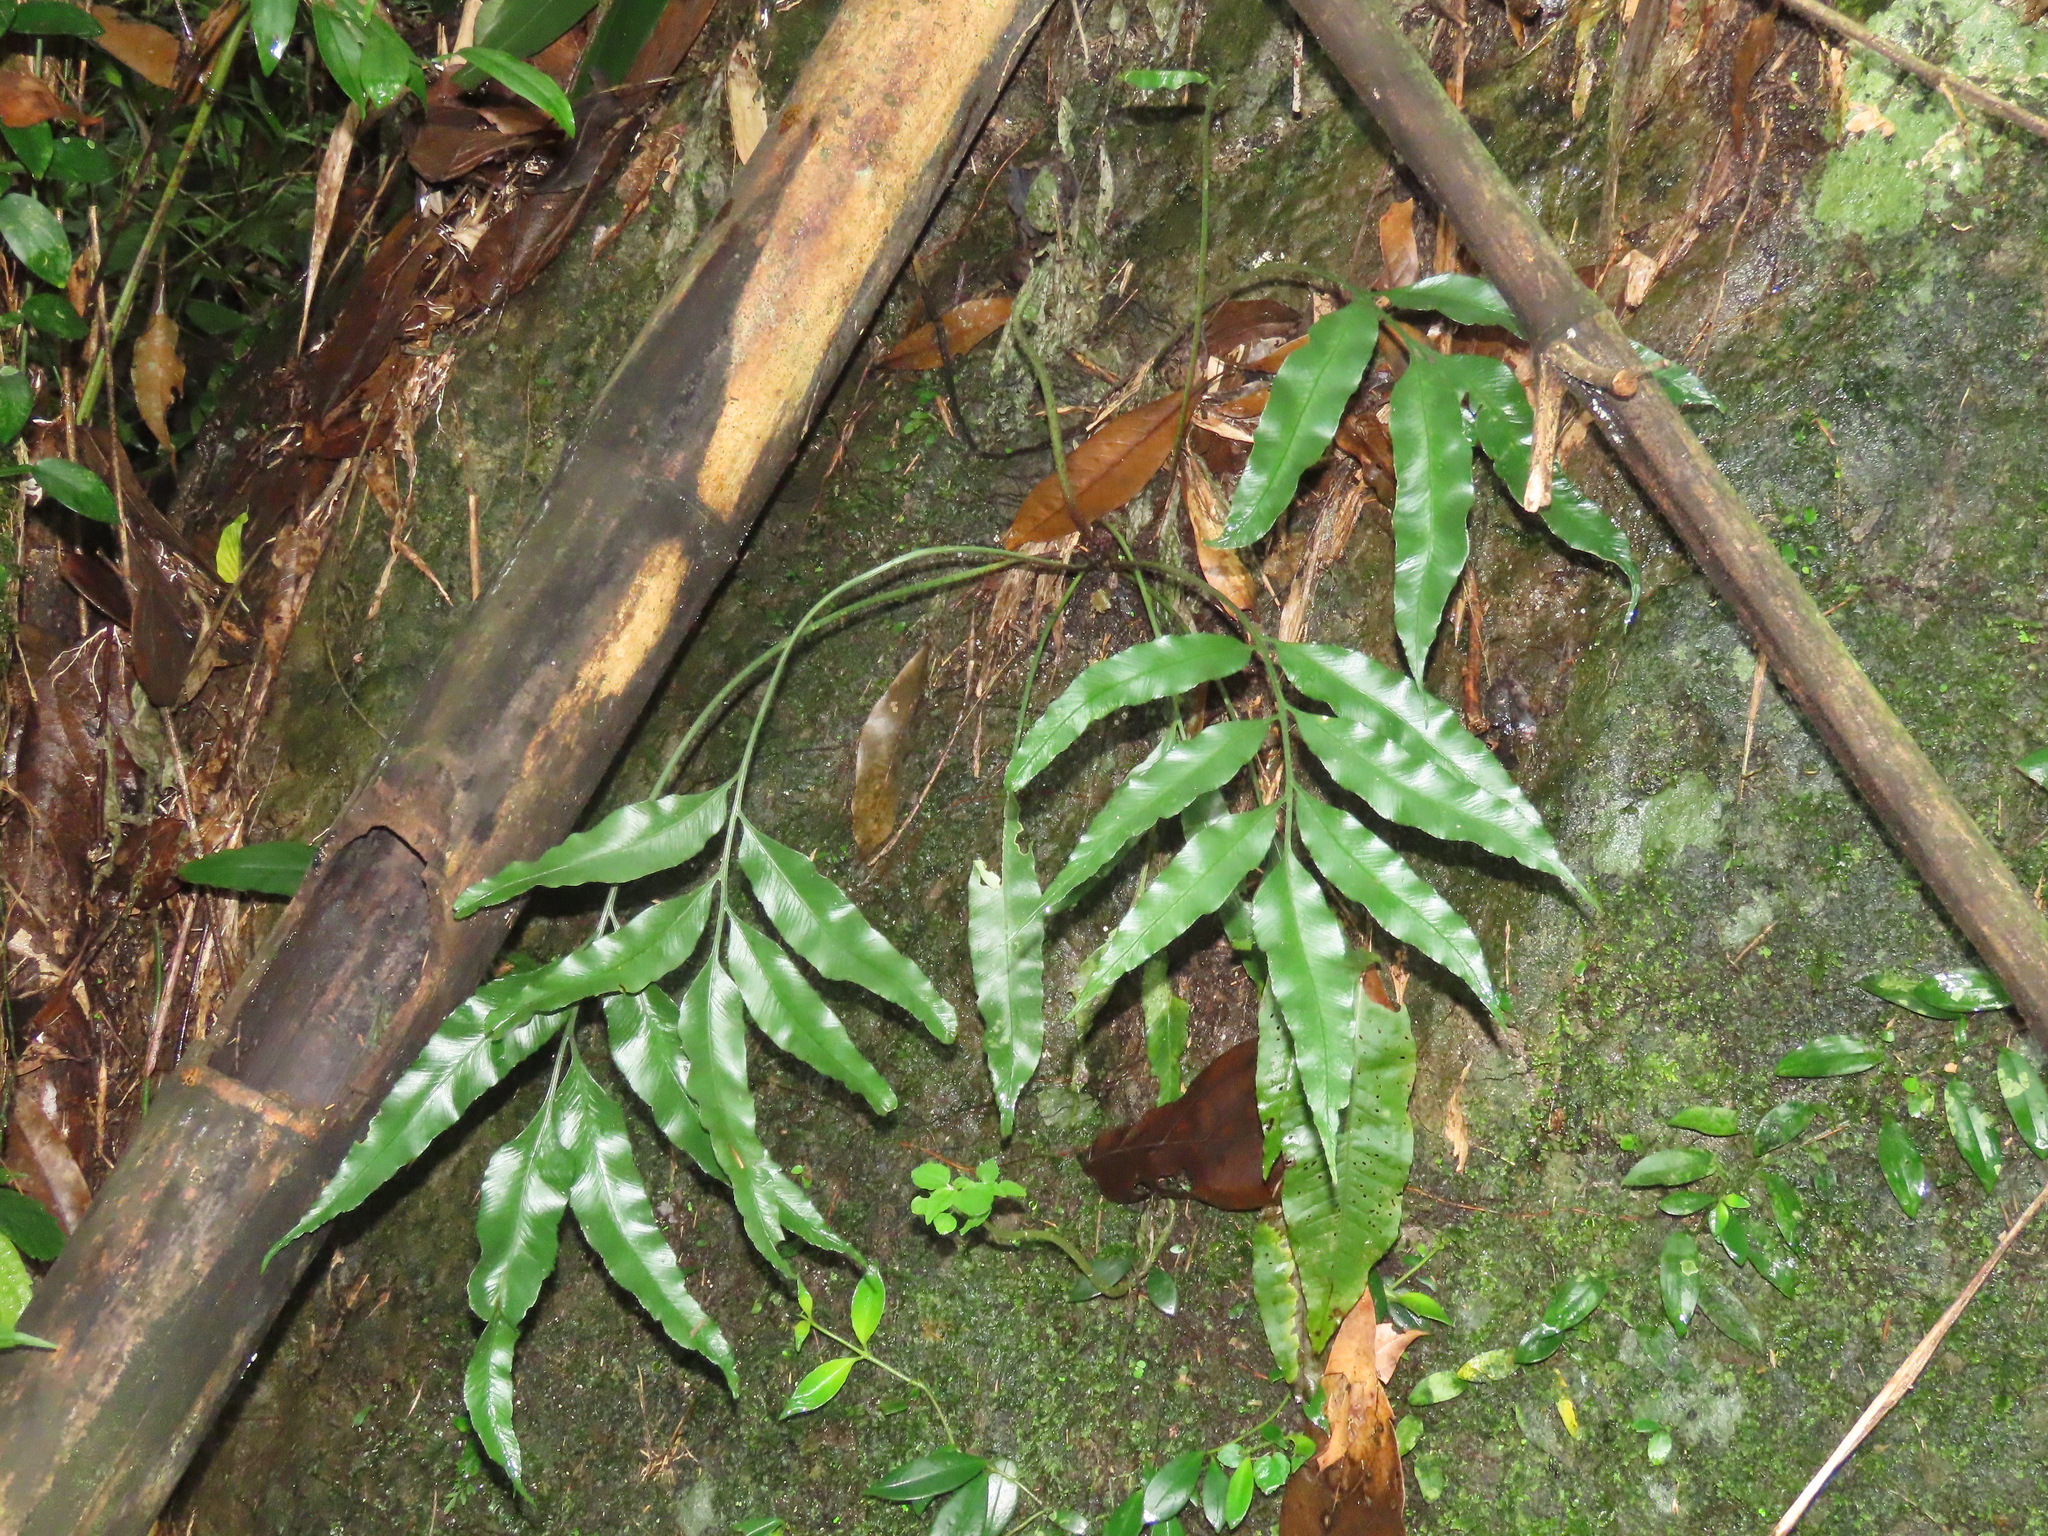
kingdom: Plantae
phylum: Tracheophyta
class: Polypodiopsida
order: Polypodiales
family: Aspleniaceae
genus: Asplenium
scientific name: Asplenium formosae
